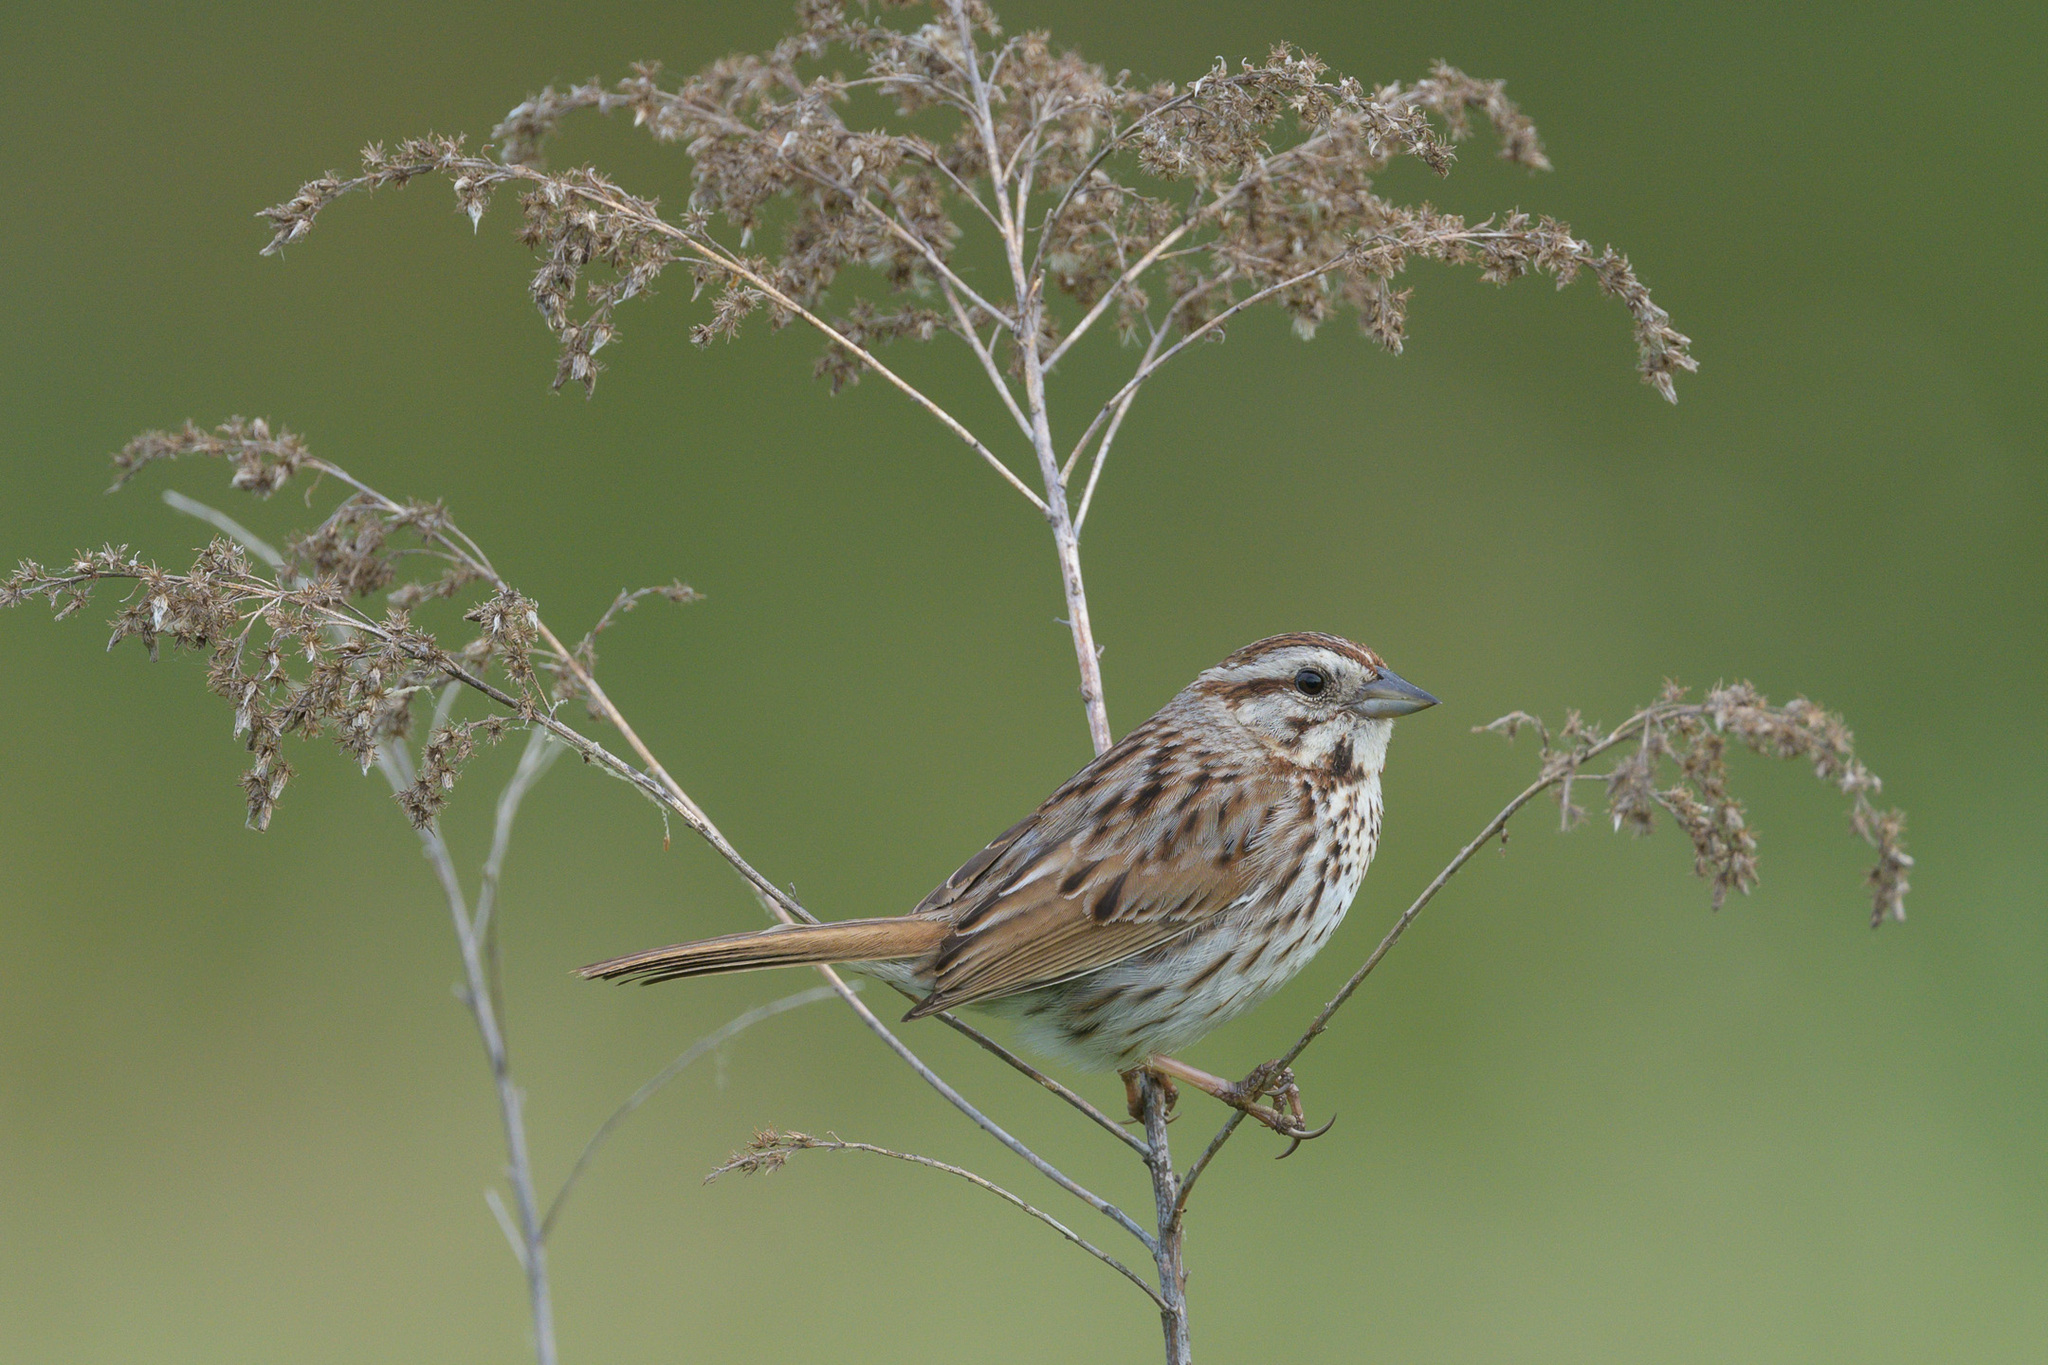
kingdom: Animalia
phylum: Chordata
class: Aves
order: Passeriformes
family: Passerellidae
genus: Melospiza
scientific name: Melospiza melodia
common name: Song sparrow
